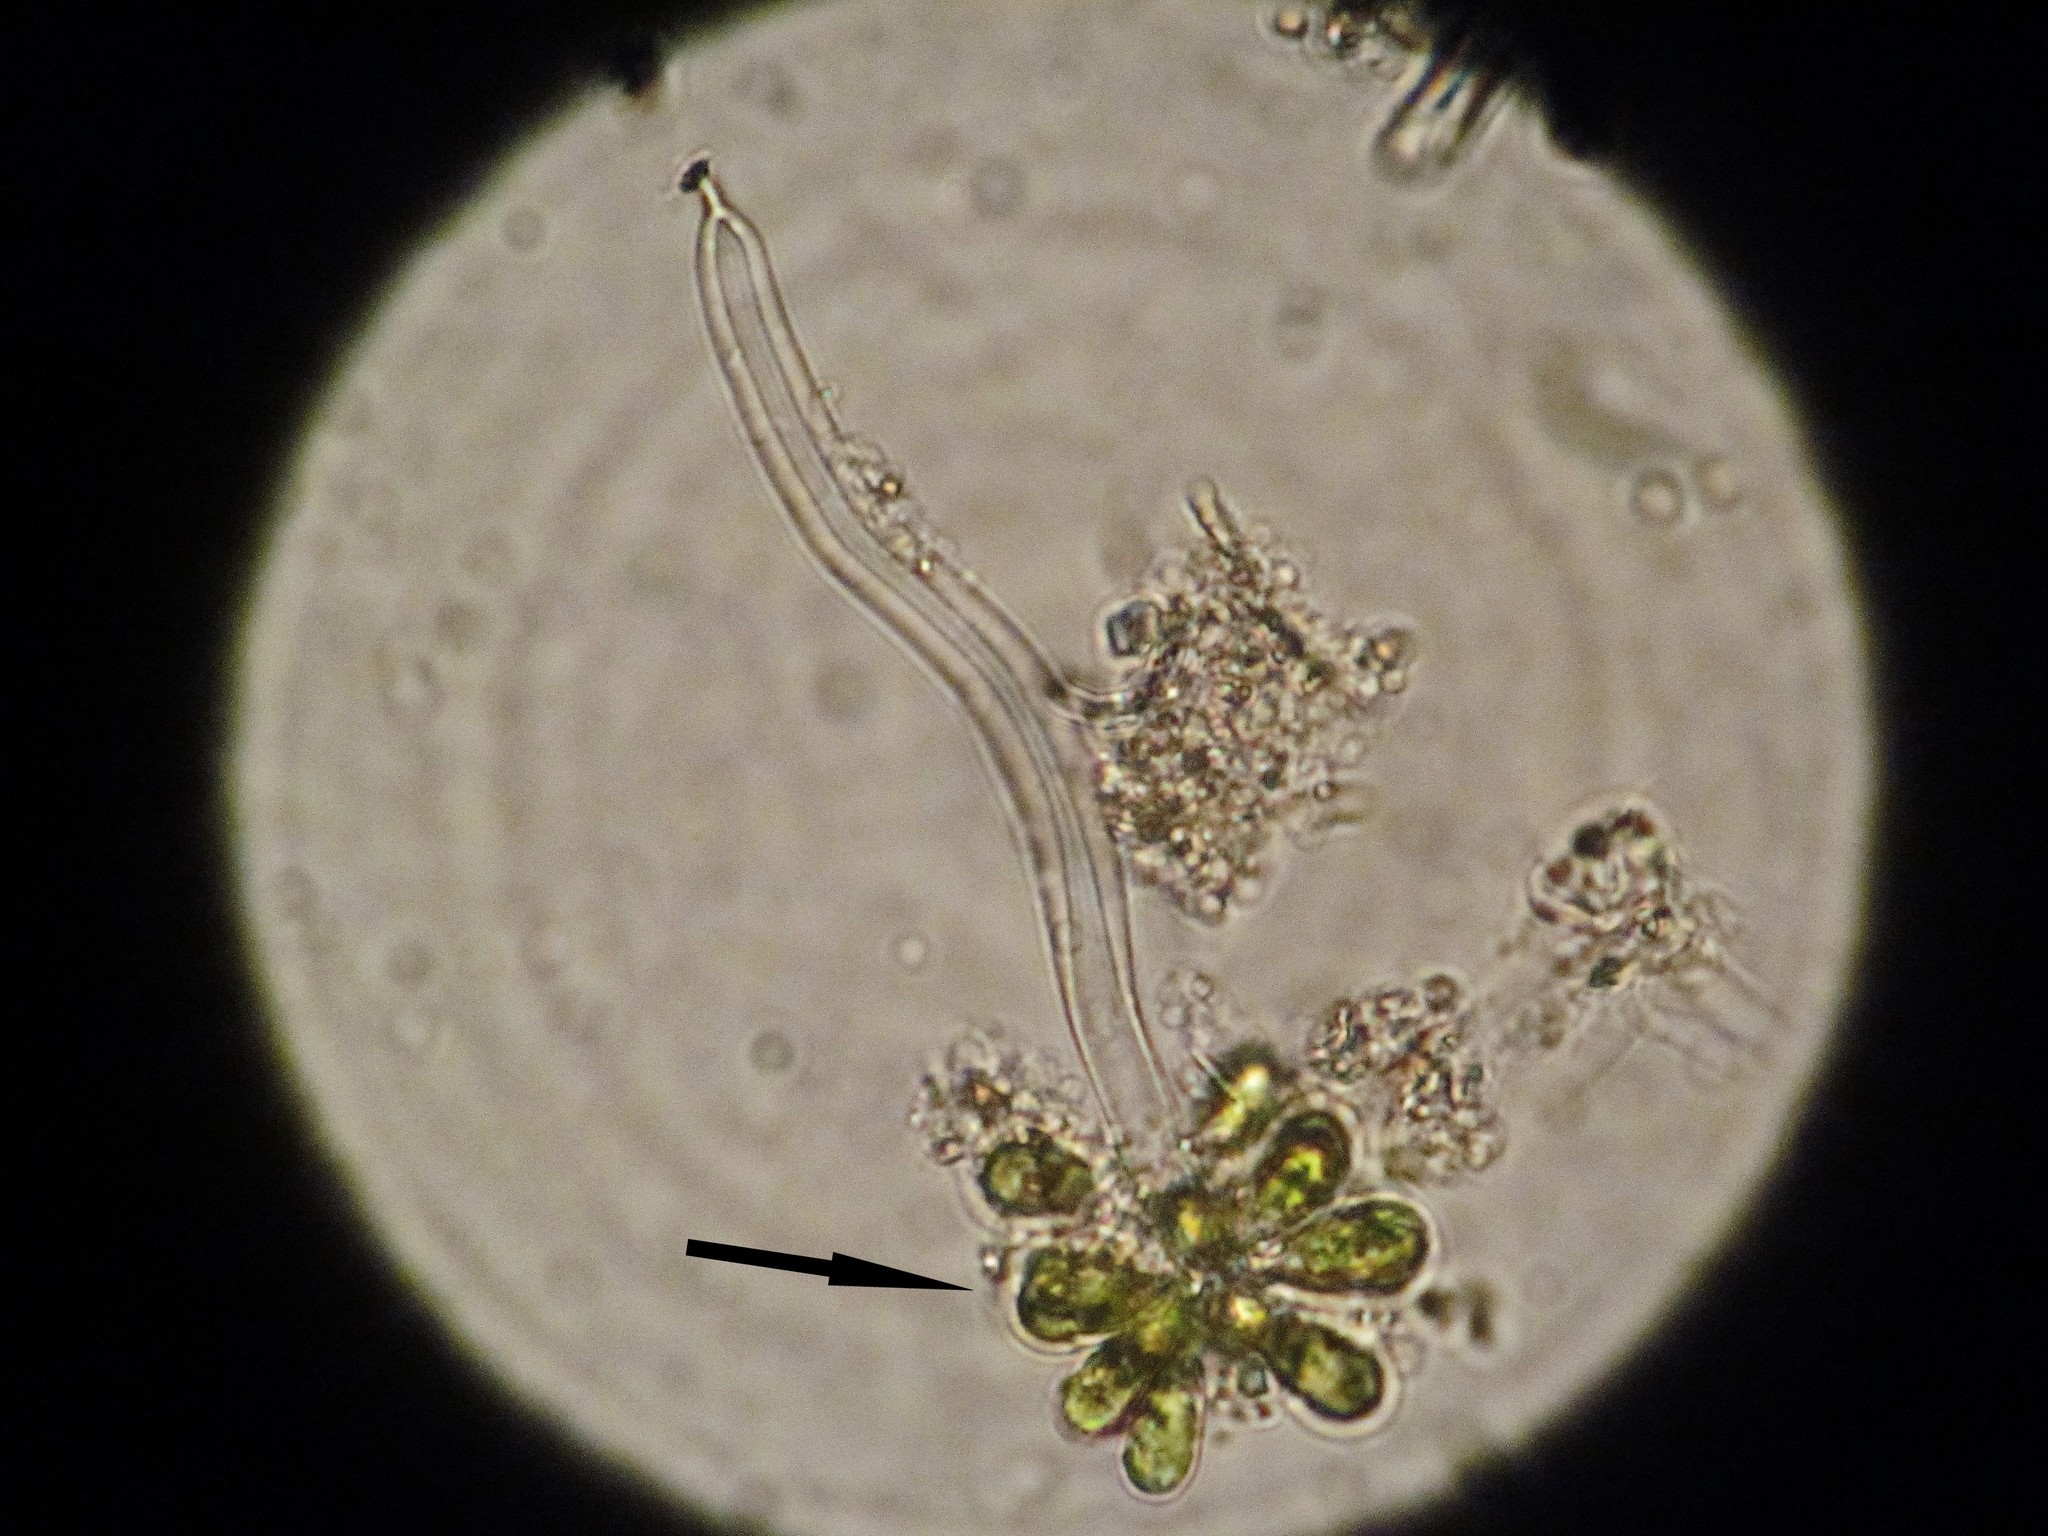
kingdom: Chromista
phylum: Ochrophyta
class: Xanthophyceae
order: Mischococcales
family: Ophiocytiaceae
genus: Ophiocytium
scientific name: Ophiocytium arbuscula
